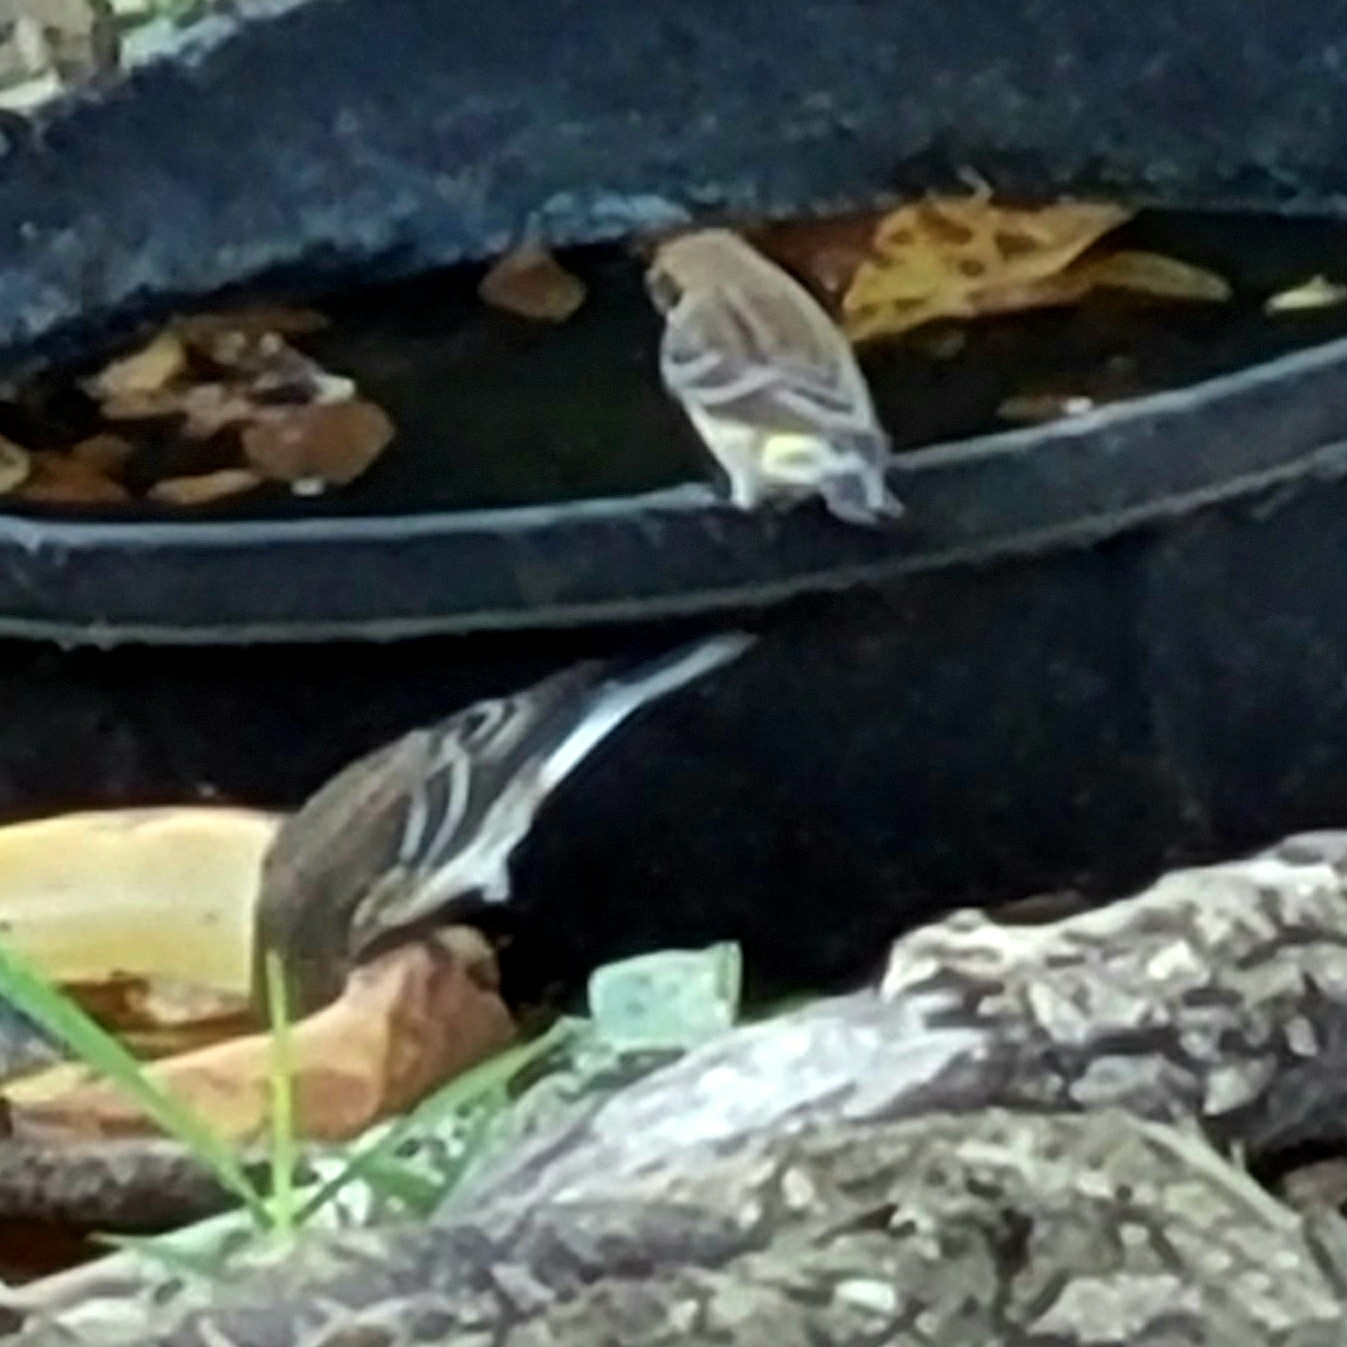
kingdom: Animalia
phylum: Chordata
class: Aves
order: Passeriformes
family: Parulidae
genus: Setophaga
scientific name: Setophaga coronata
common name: Myrtle warbler
